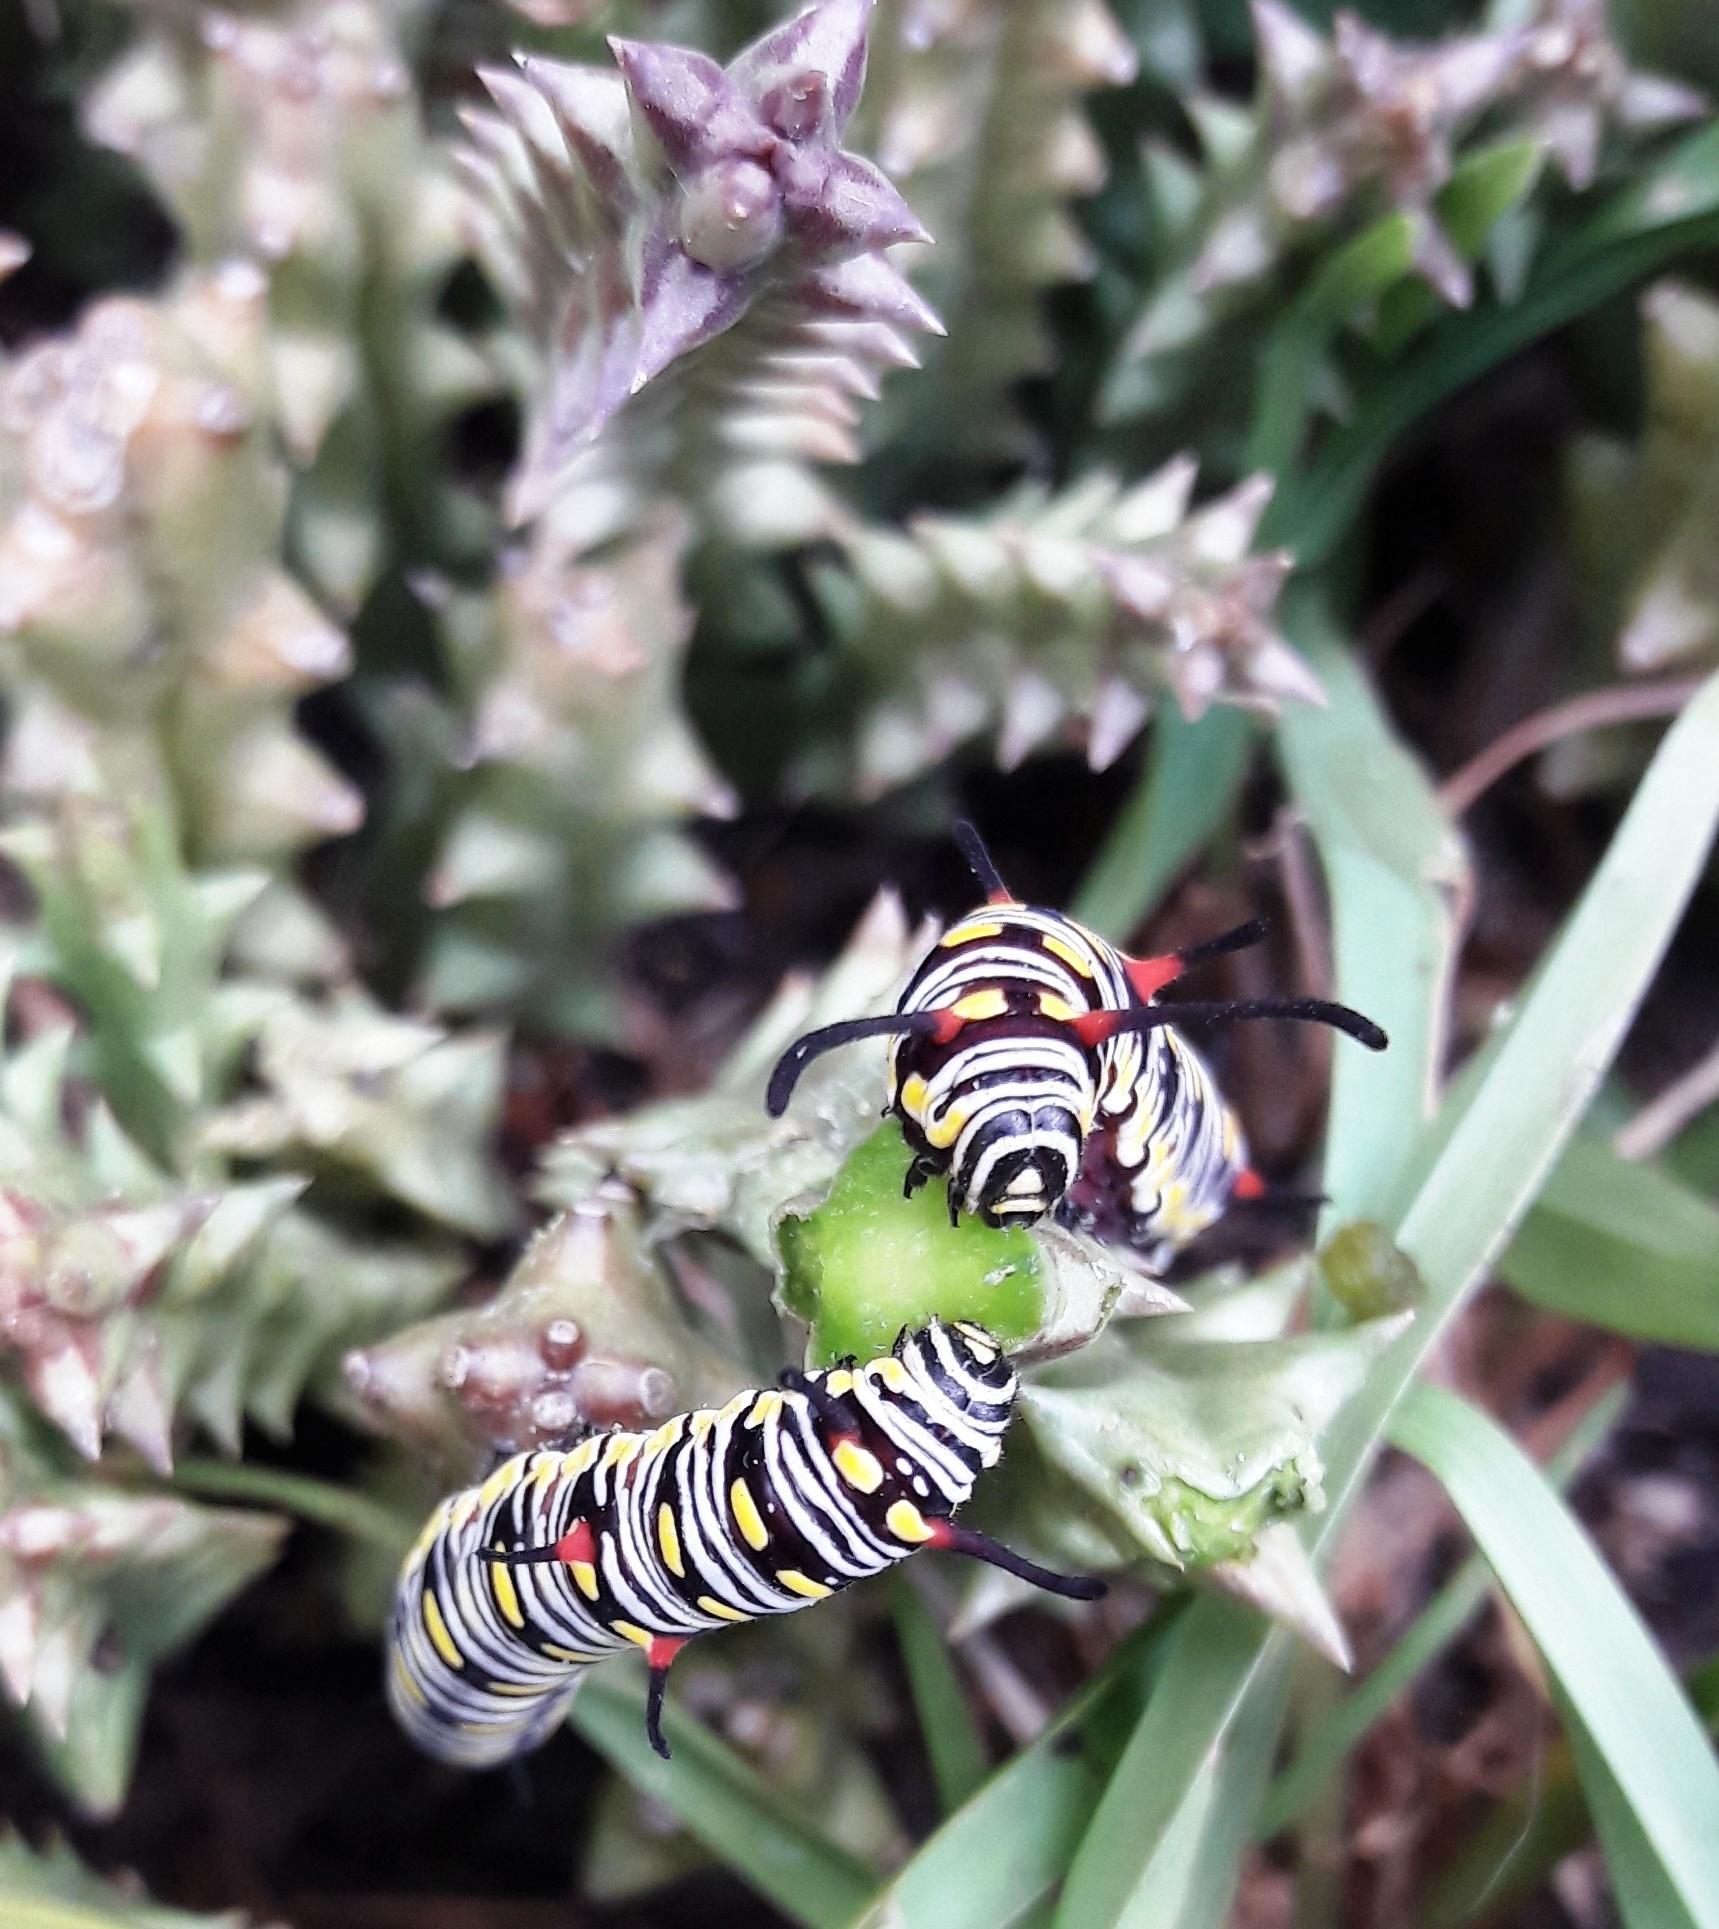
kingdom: Plantae
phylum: Tracheophyta
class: Magnoliopsida
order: Gentianales
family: Apocynaceae
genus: Ceropegia
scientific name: Ceropegia mixta
